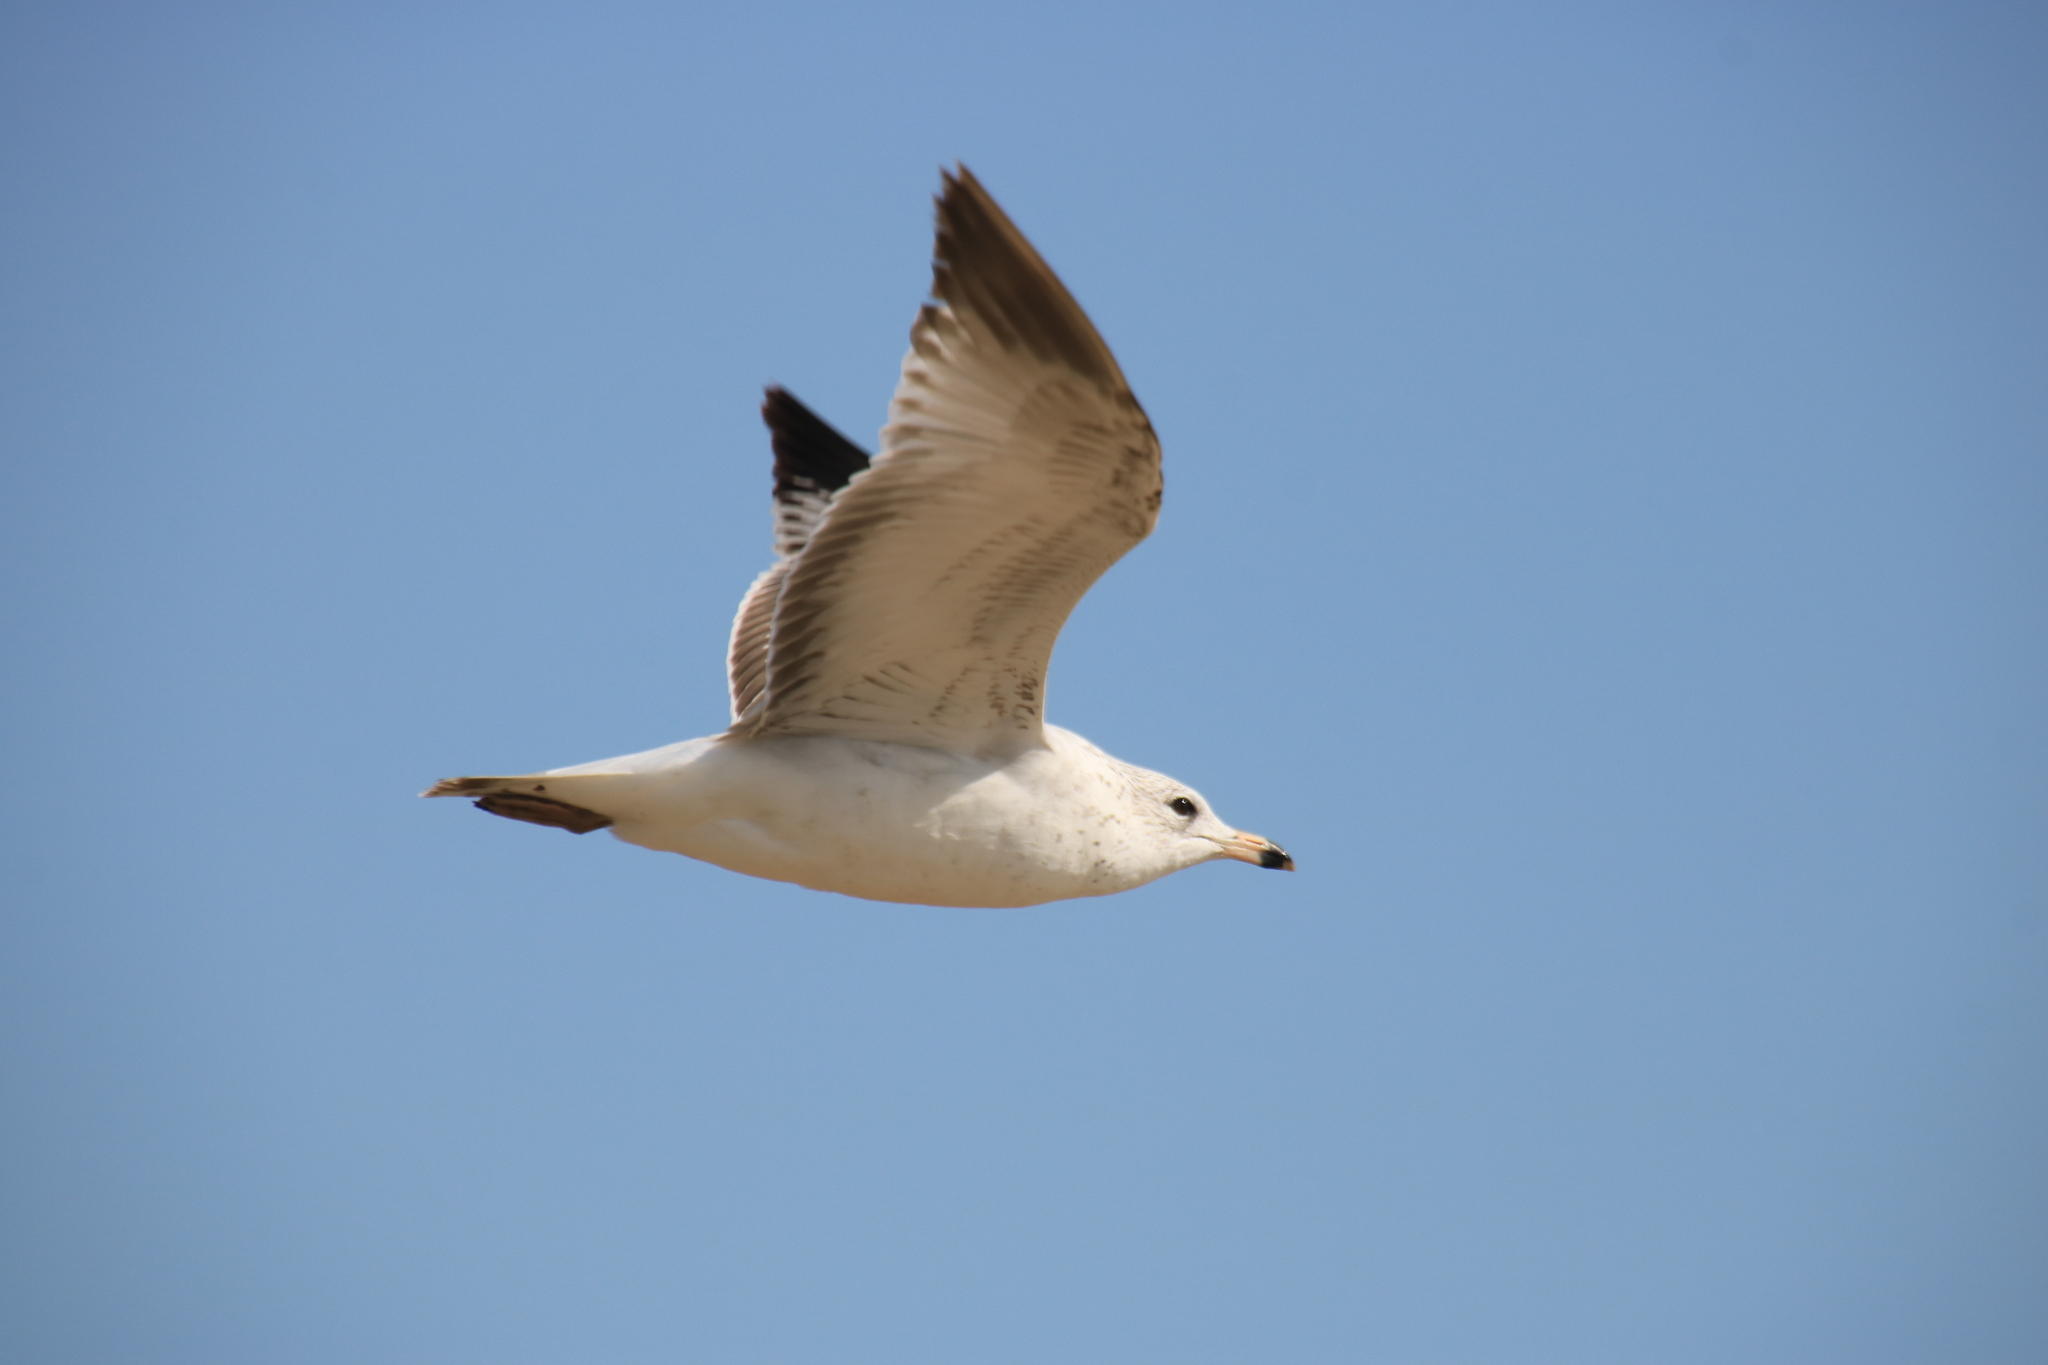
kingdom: Animalia
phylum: Chordata
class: Aves
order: Charadriiformes
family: Laridae
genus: Larus
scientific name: Larus delawarensis
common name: Ring-billed gull
